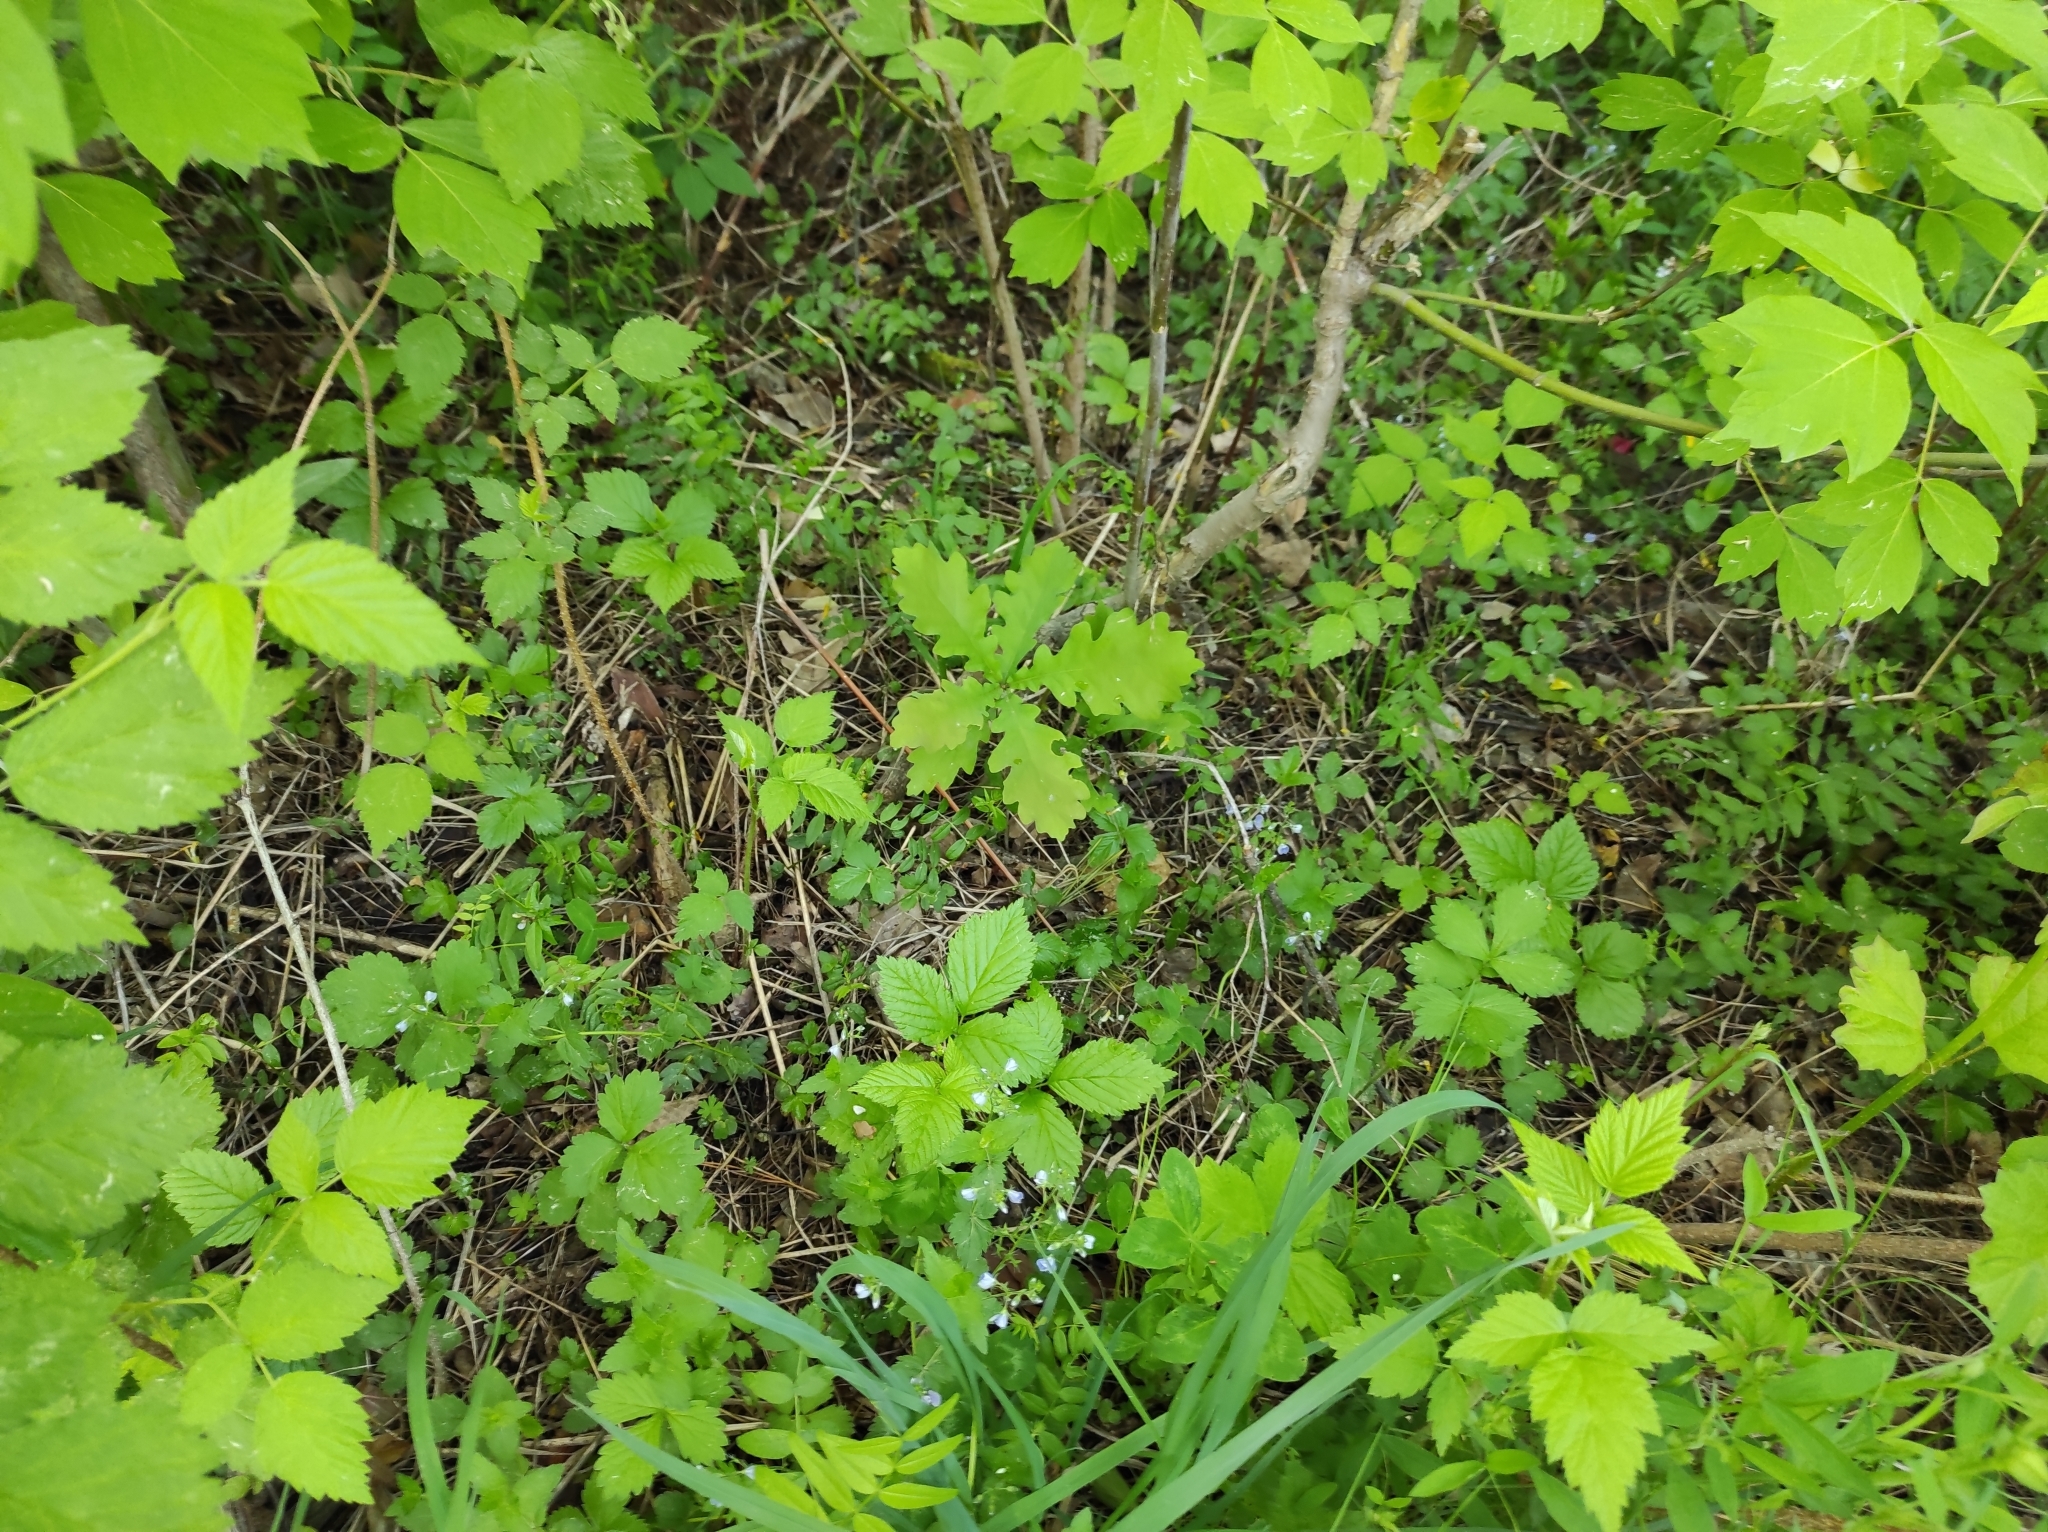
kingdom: Plantae
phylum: Tracheophyta
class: Magnoliopsida
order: Fagales
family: Fagaceae
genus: Quercus
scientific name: Quercus robur
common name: Pedunculate oak
